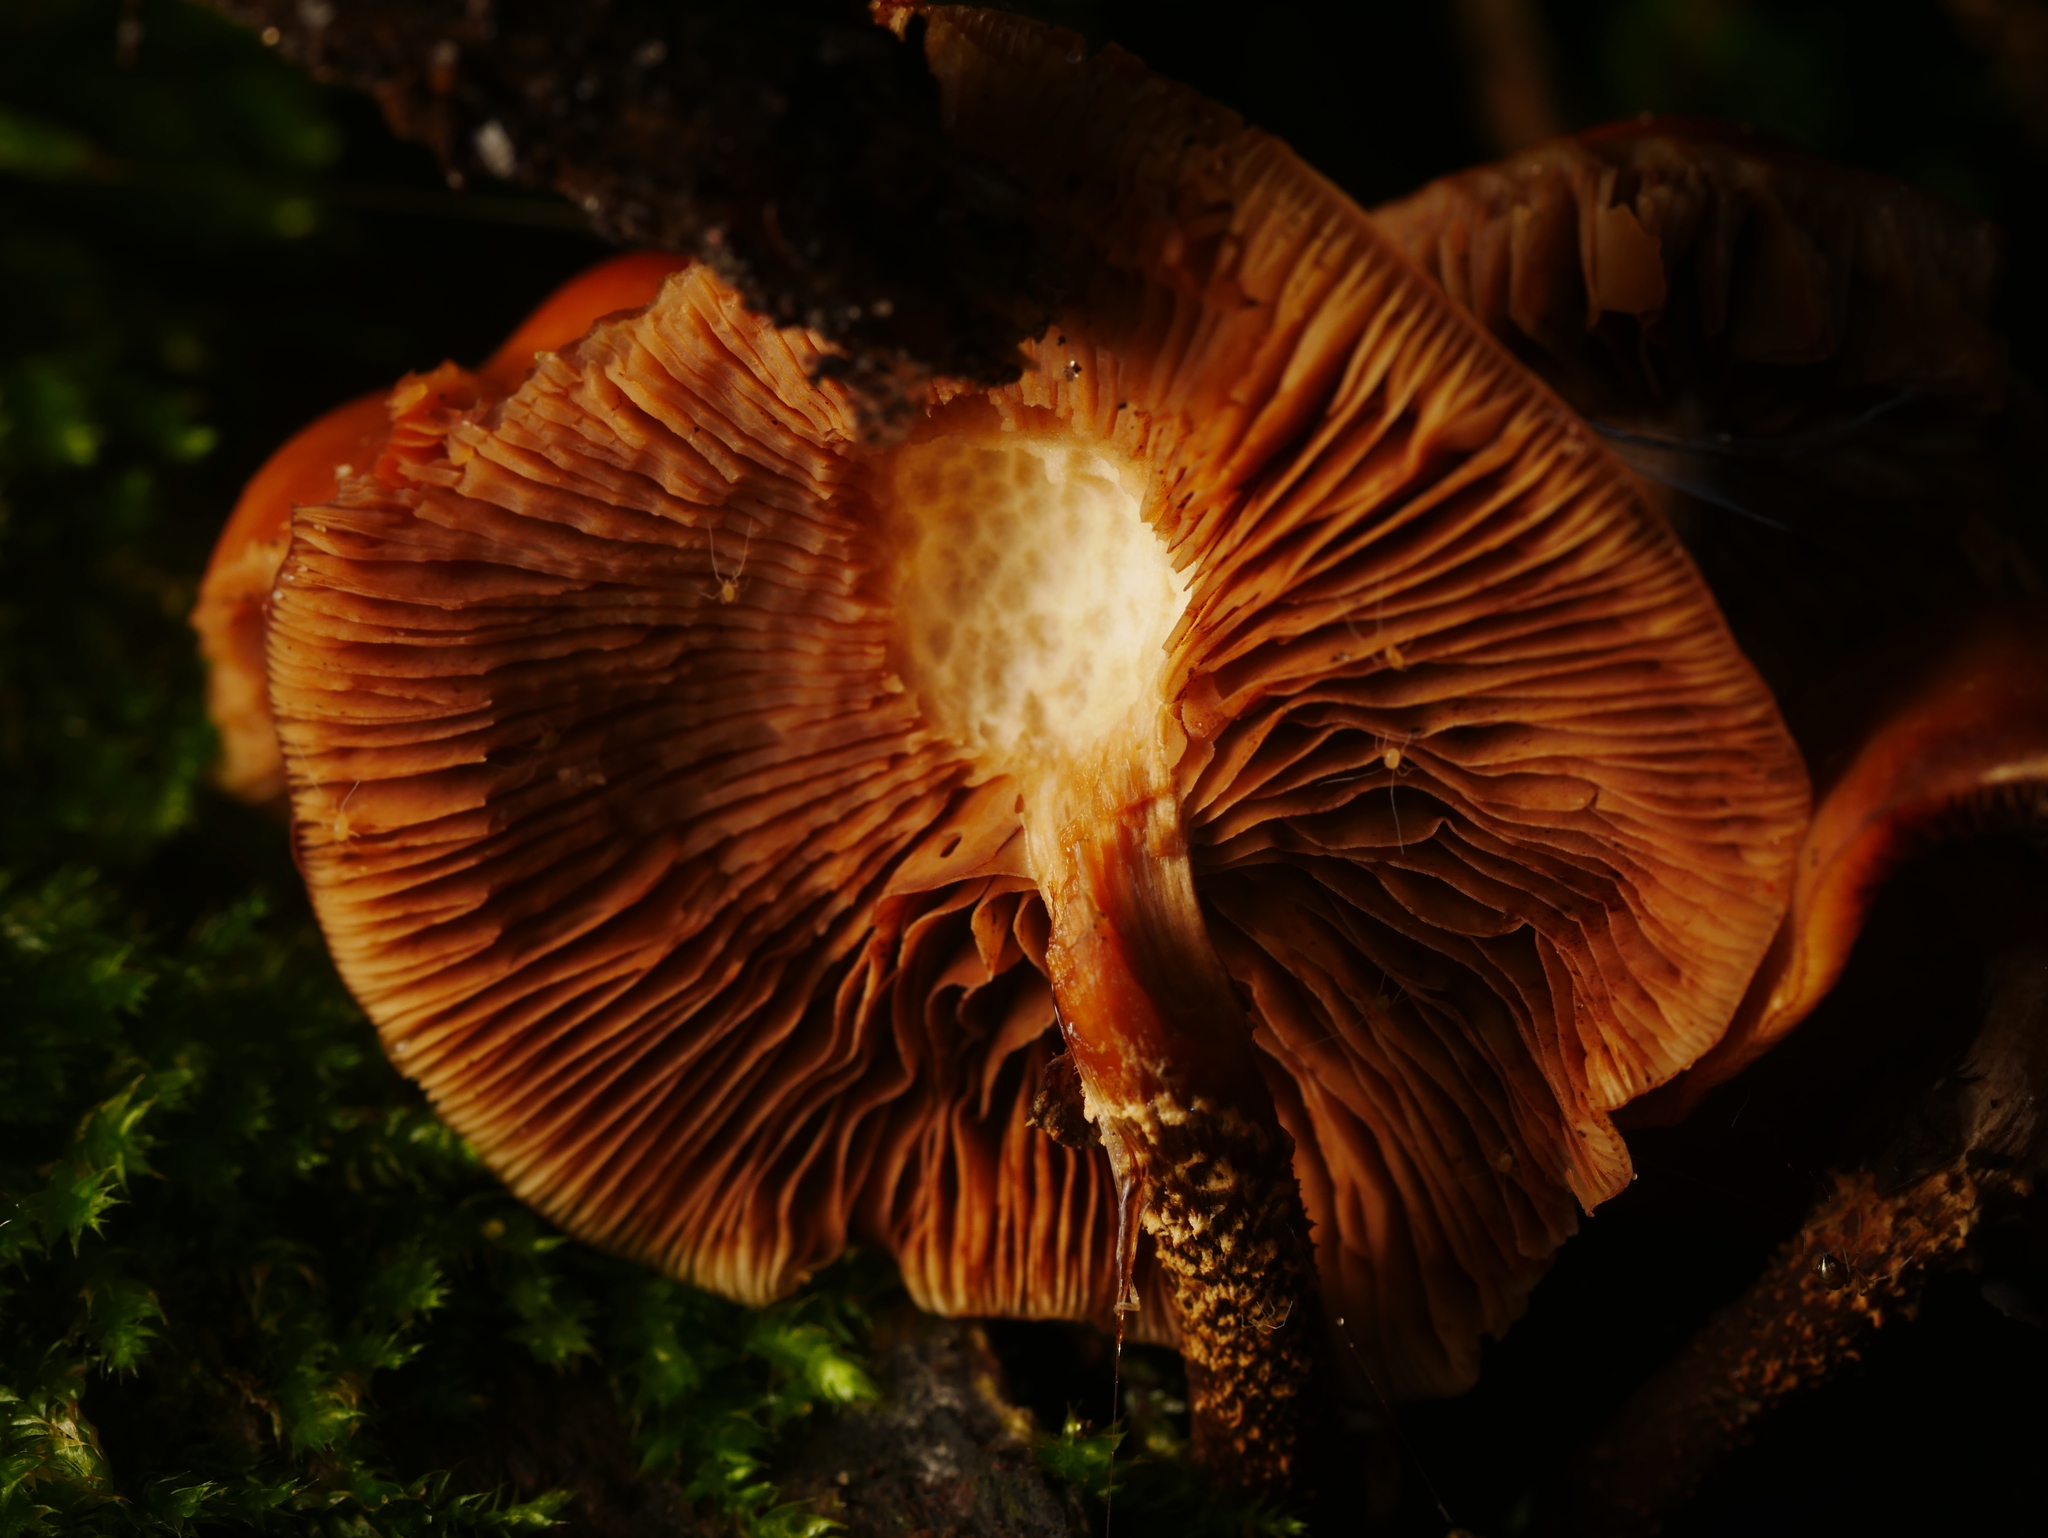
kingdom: Fungi
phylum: Basidiomycota
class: Agaricomycetes
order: Agaricales
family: Strophariaceae
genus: Kuehneromyces
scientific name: Kuehneromyces mutabilis
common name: Sheathed woodtuft
